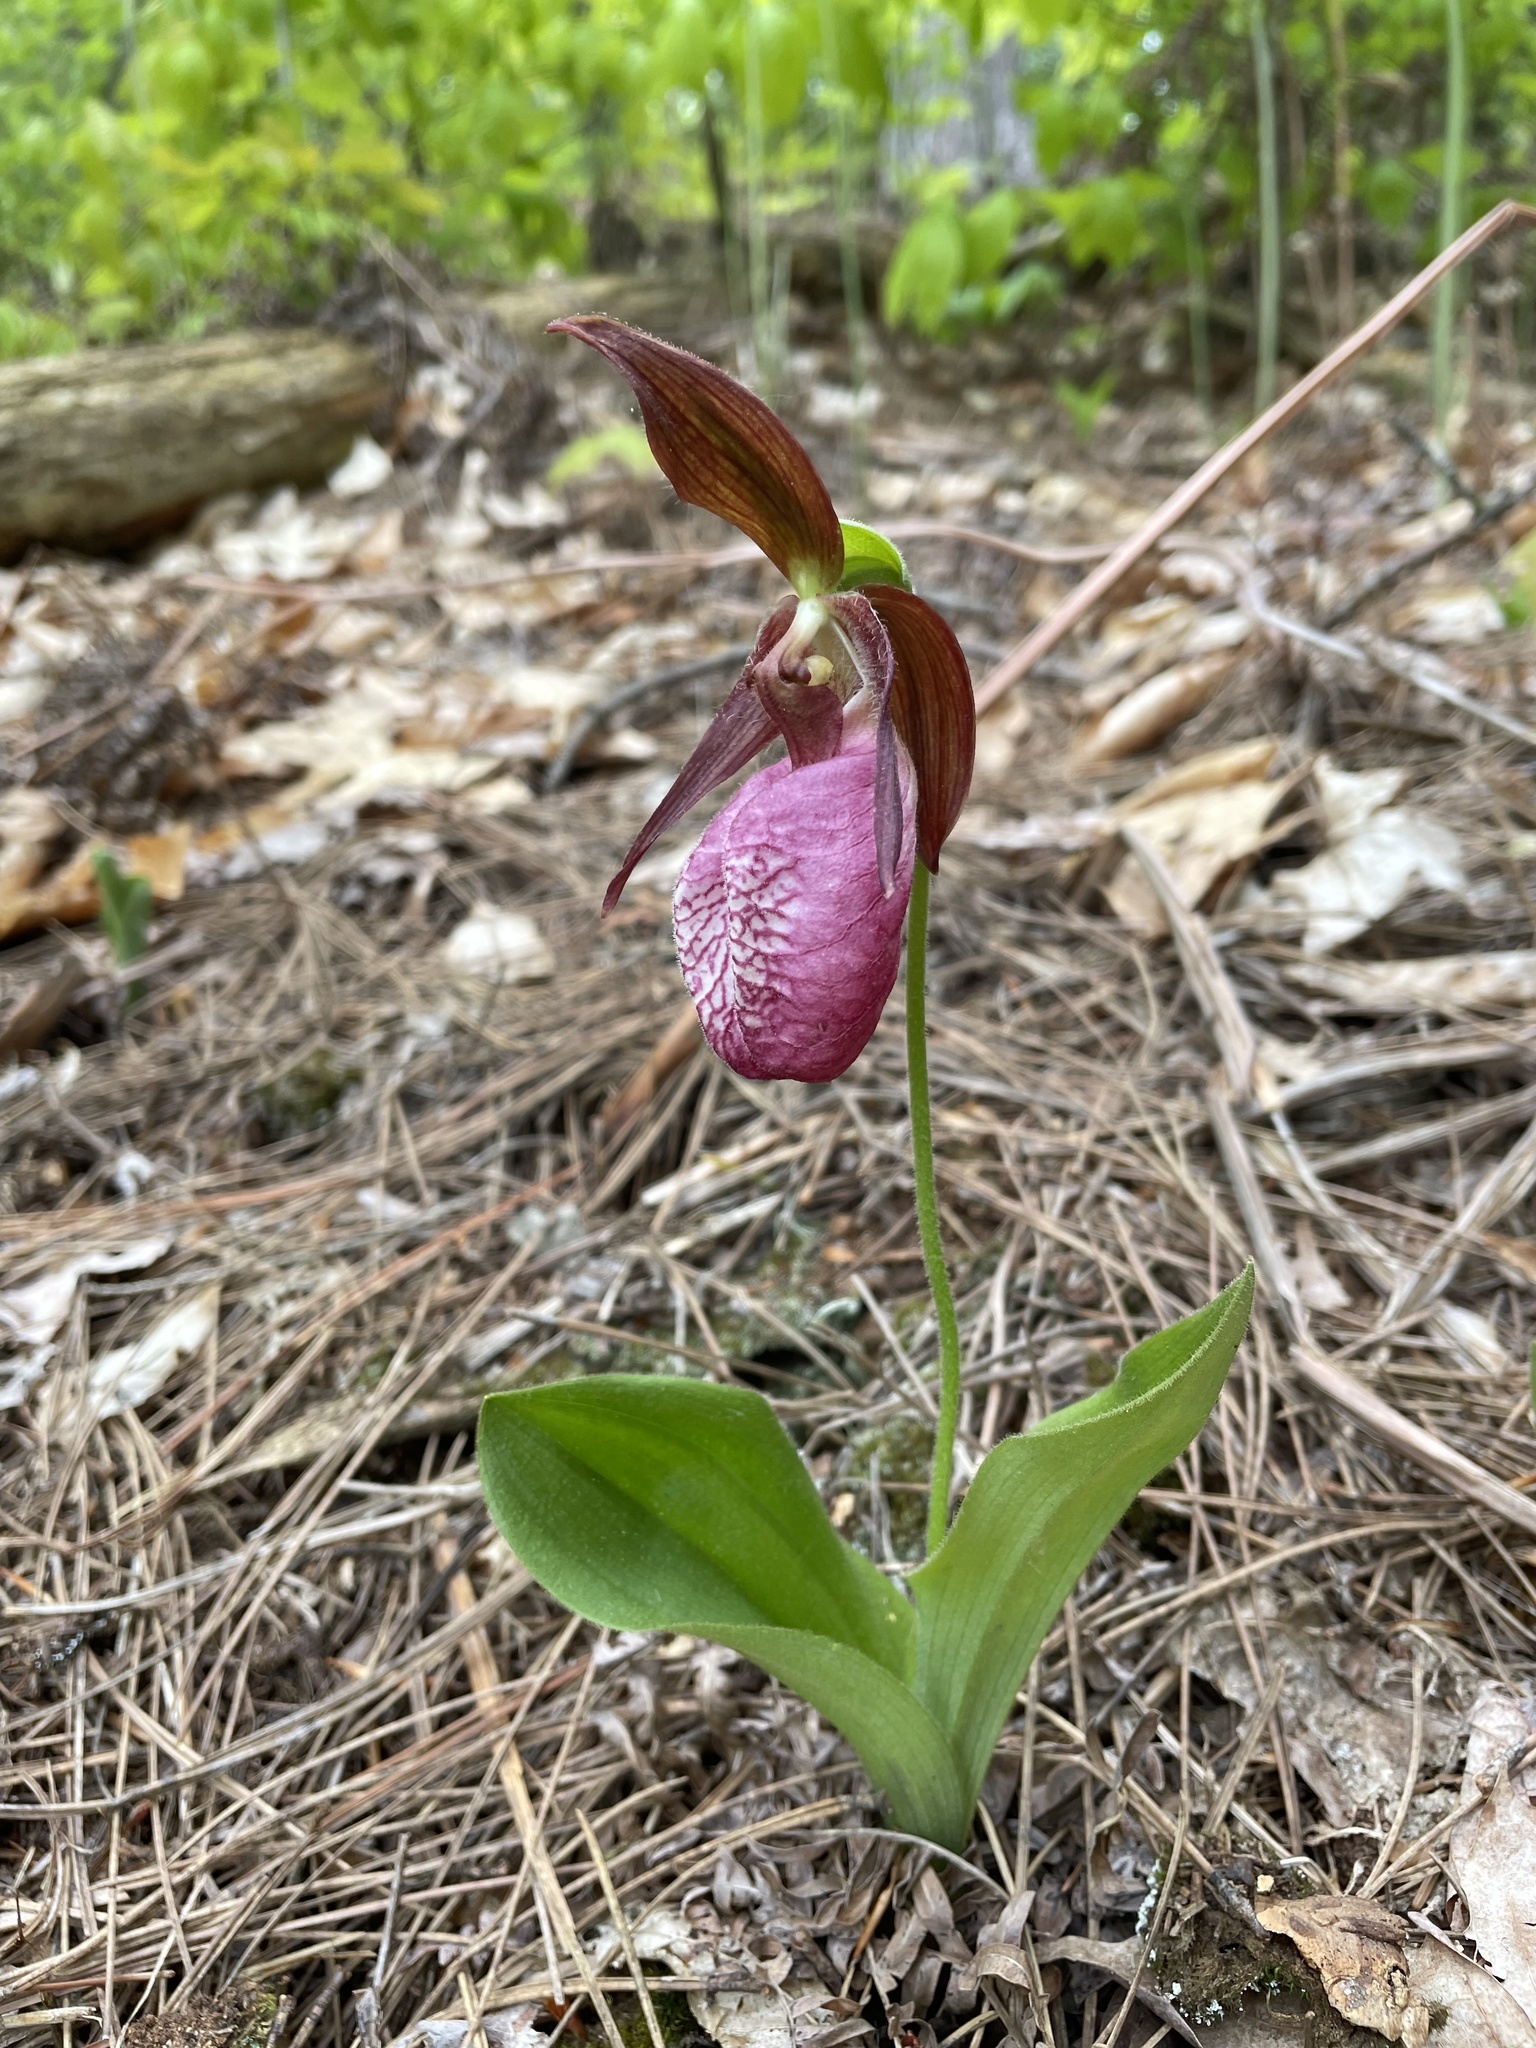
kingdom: Plantae
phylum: Tracheophyta
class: Liliopsida
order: Asparagales
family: Orchidaceae
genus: Cypripedium
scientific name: Cypripedium acaule
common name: Pink lady's-slipper
